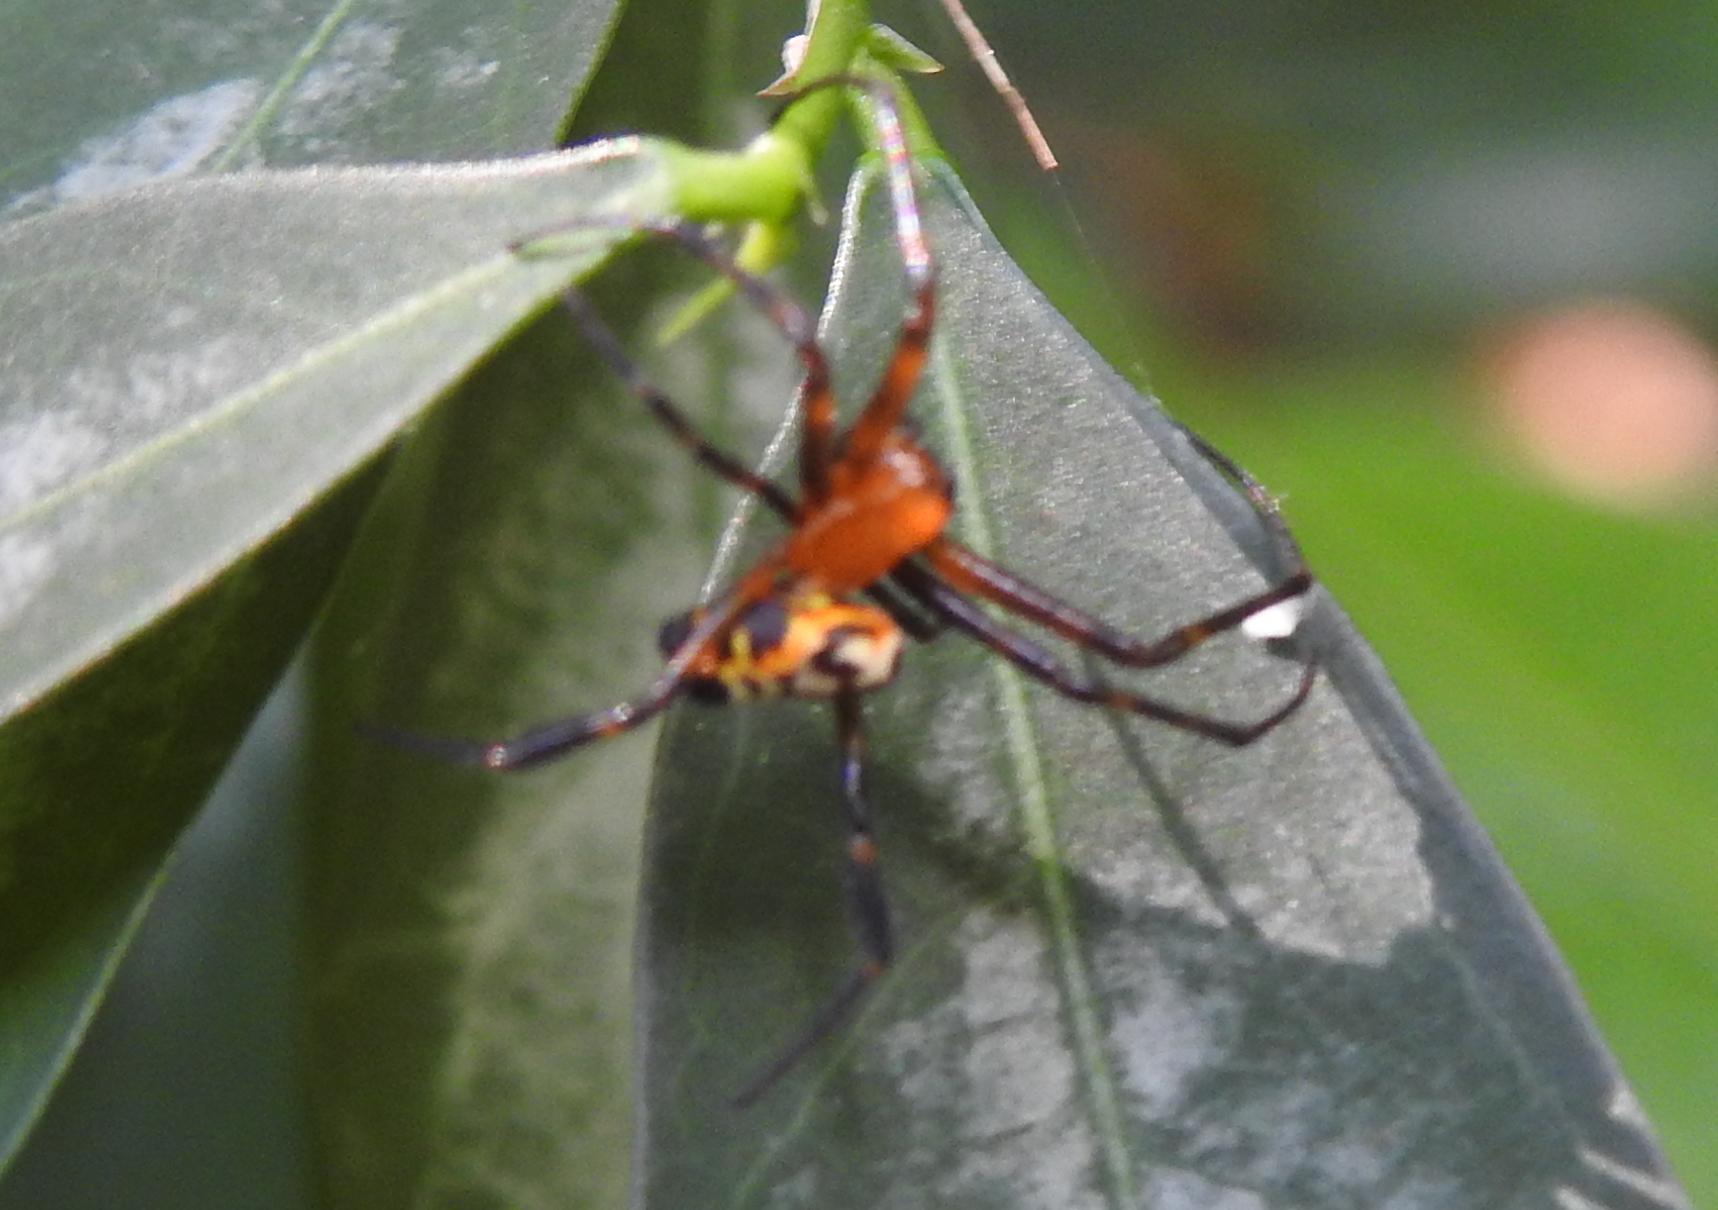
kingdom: Animalia
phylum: Arthropoda
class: Arachnida
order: Araneae
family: Tetragnathidae
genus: Leucauge
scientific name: Leucauge fastigata
